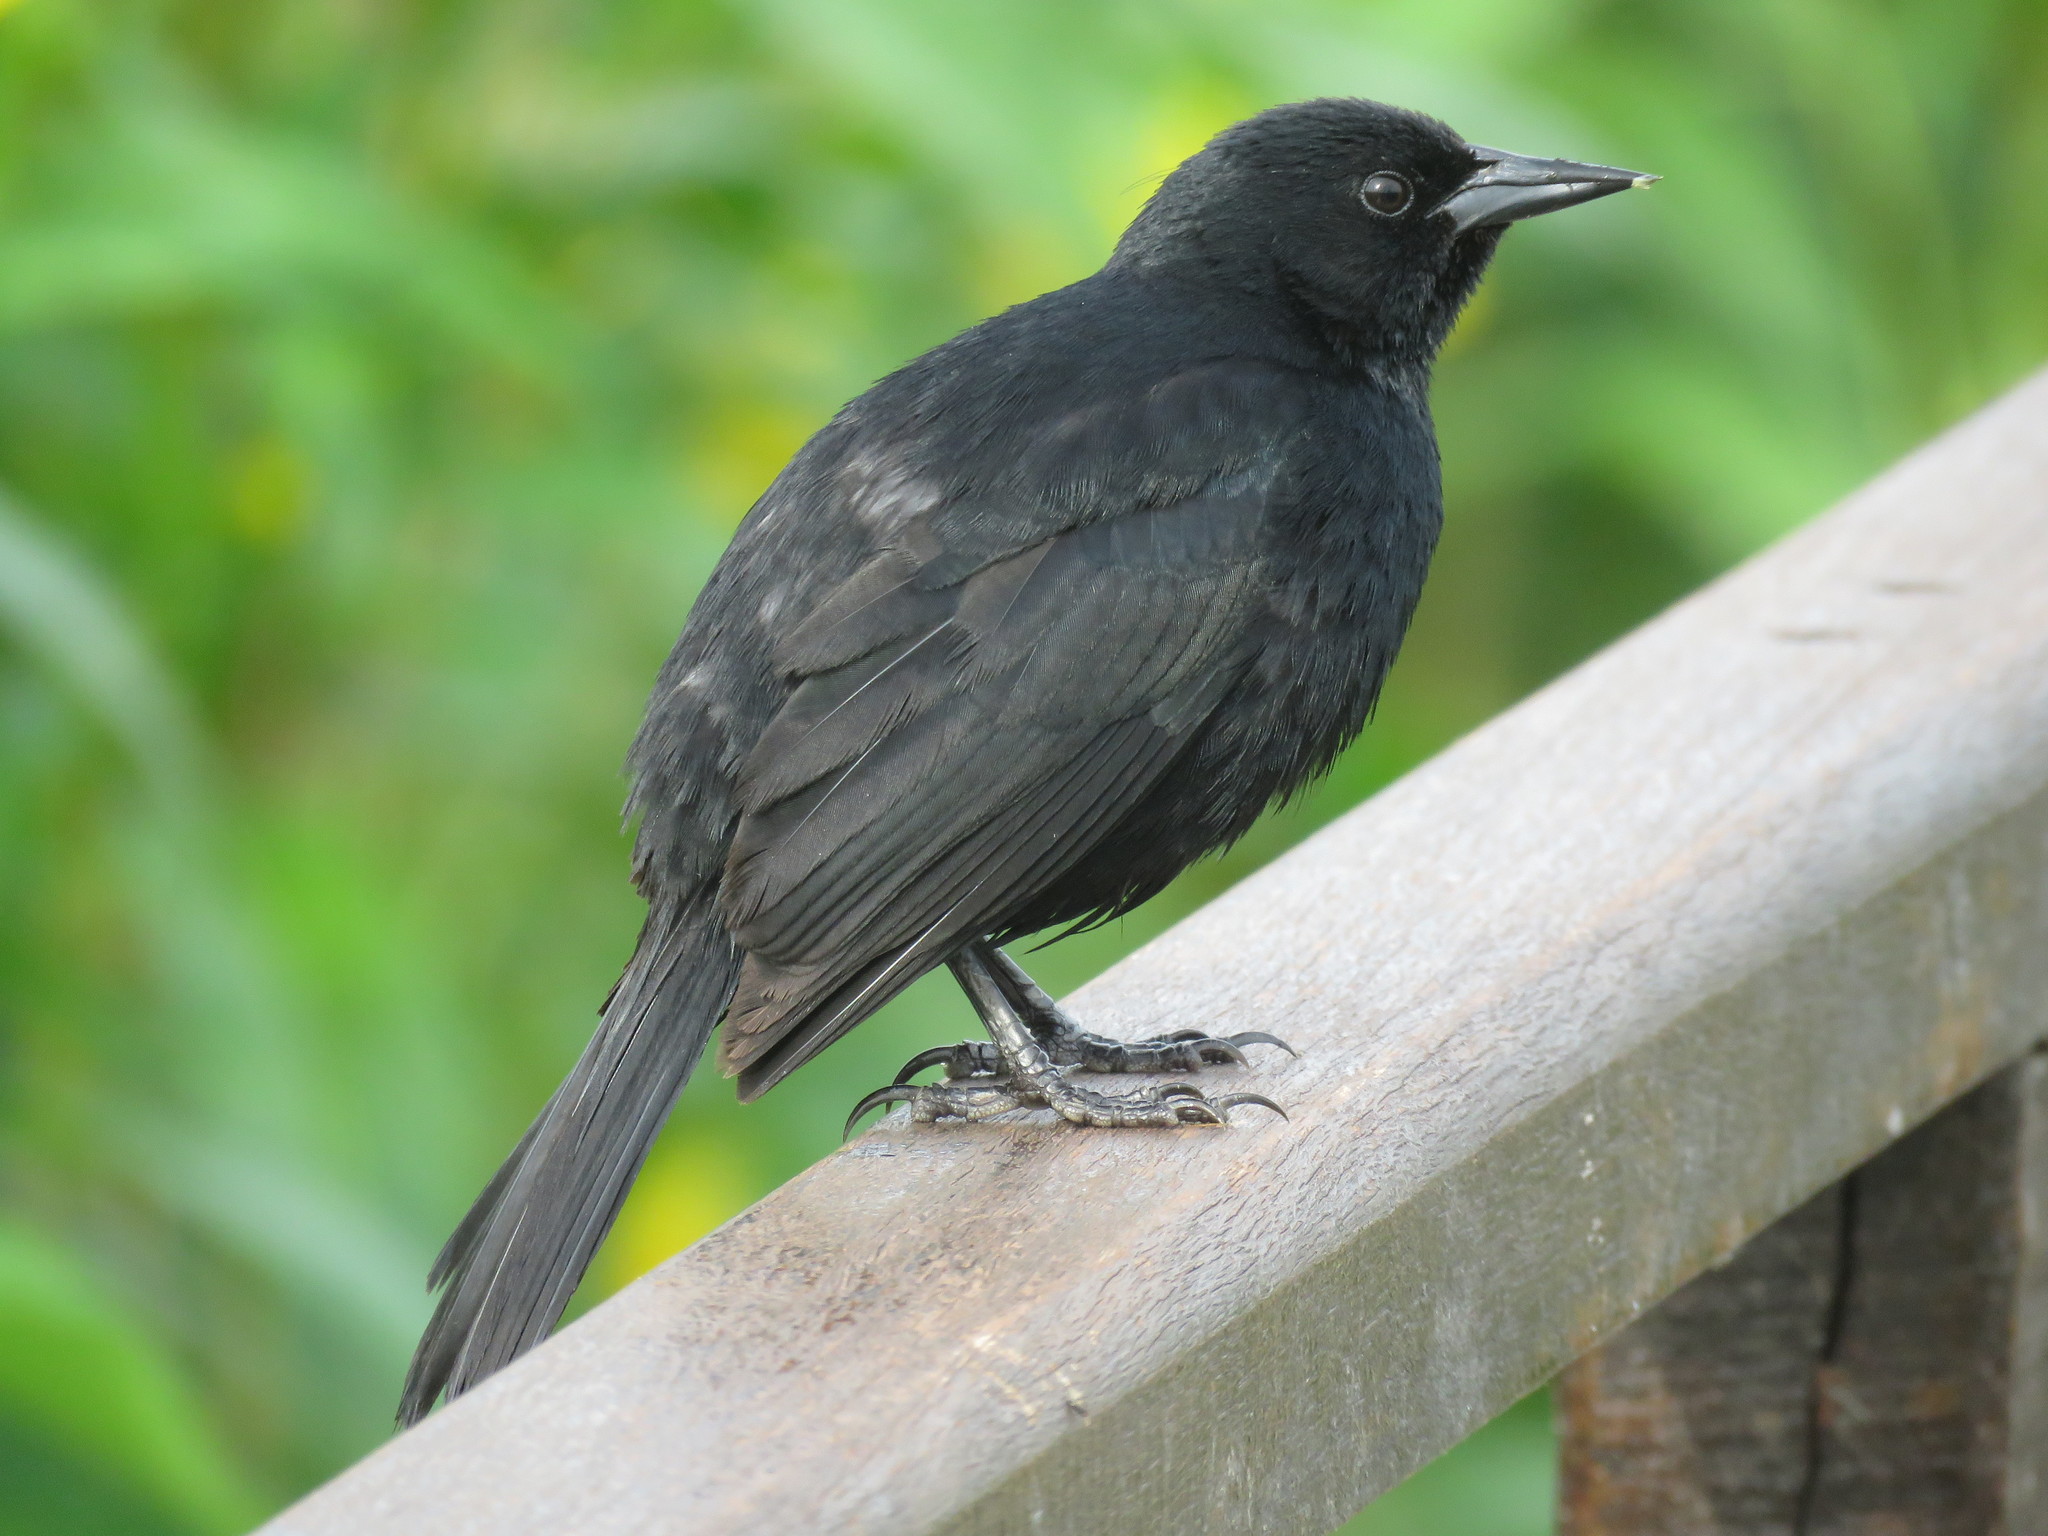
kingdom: Animalia
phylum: Chordata
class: Aves
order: Passeriformes
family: Icteridae
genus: Agelasticus
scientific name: Agelasticus cyanopus
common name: Unicolored blackbird
